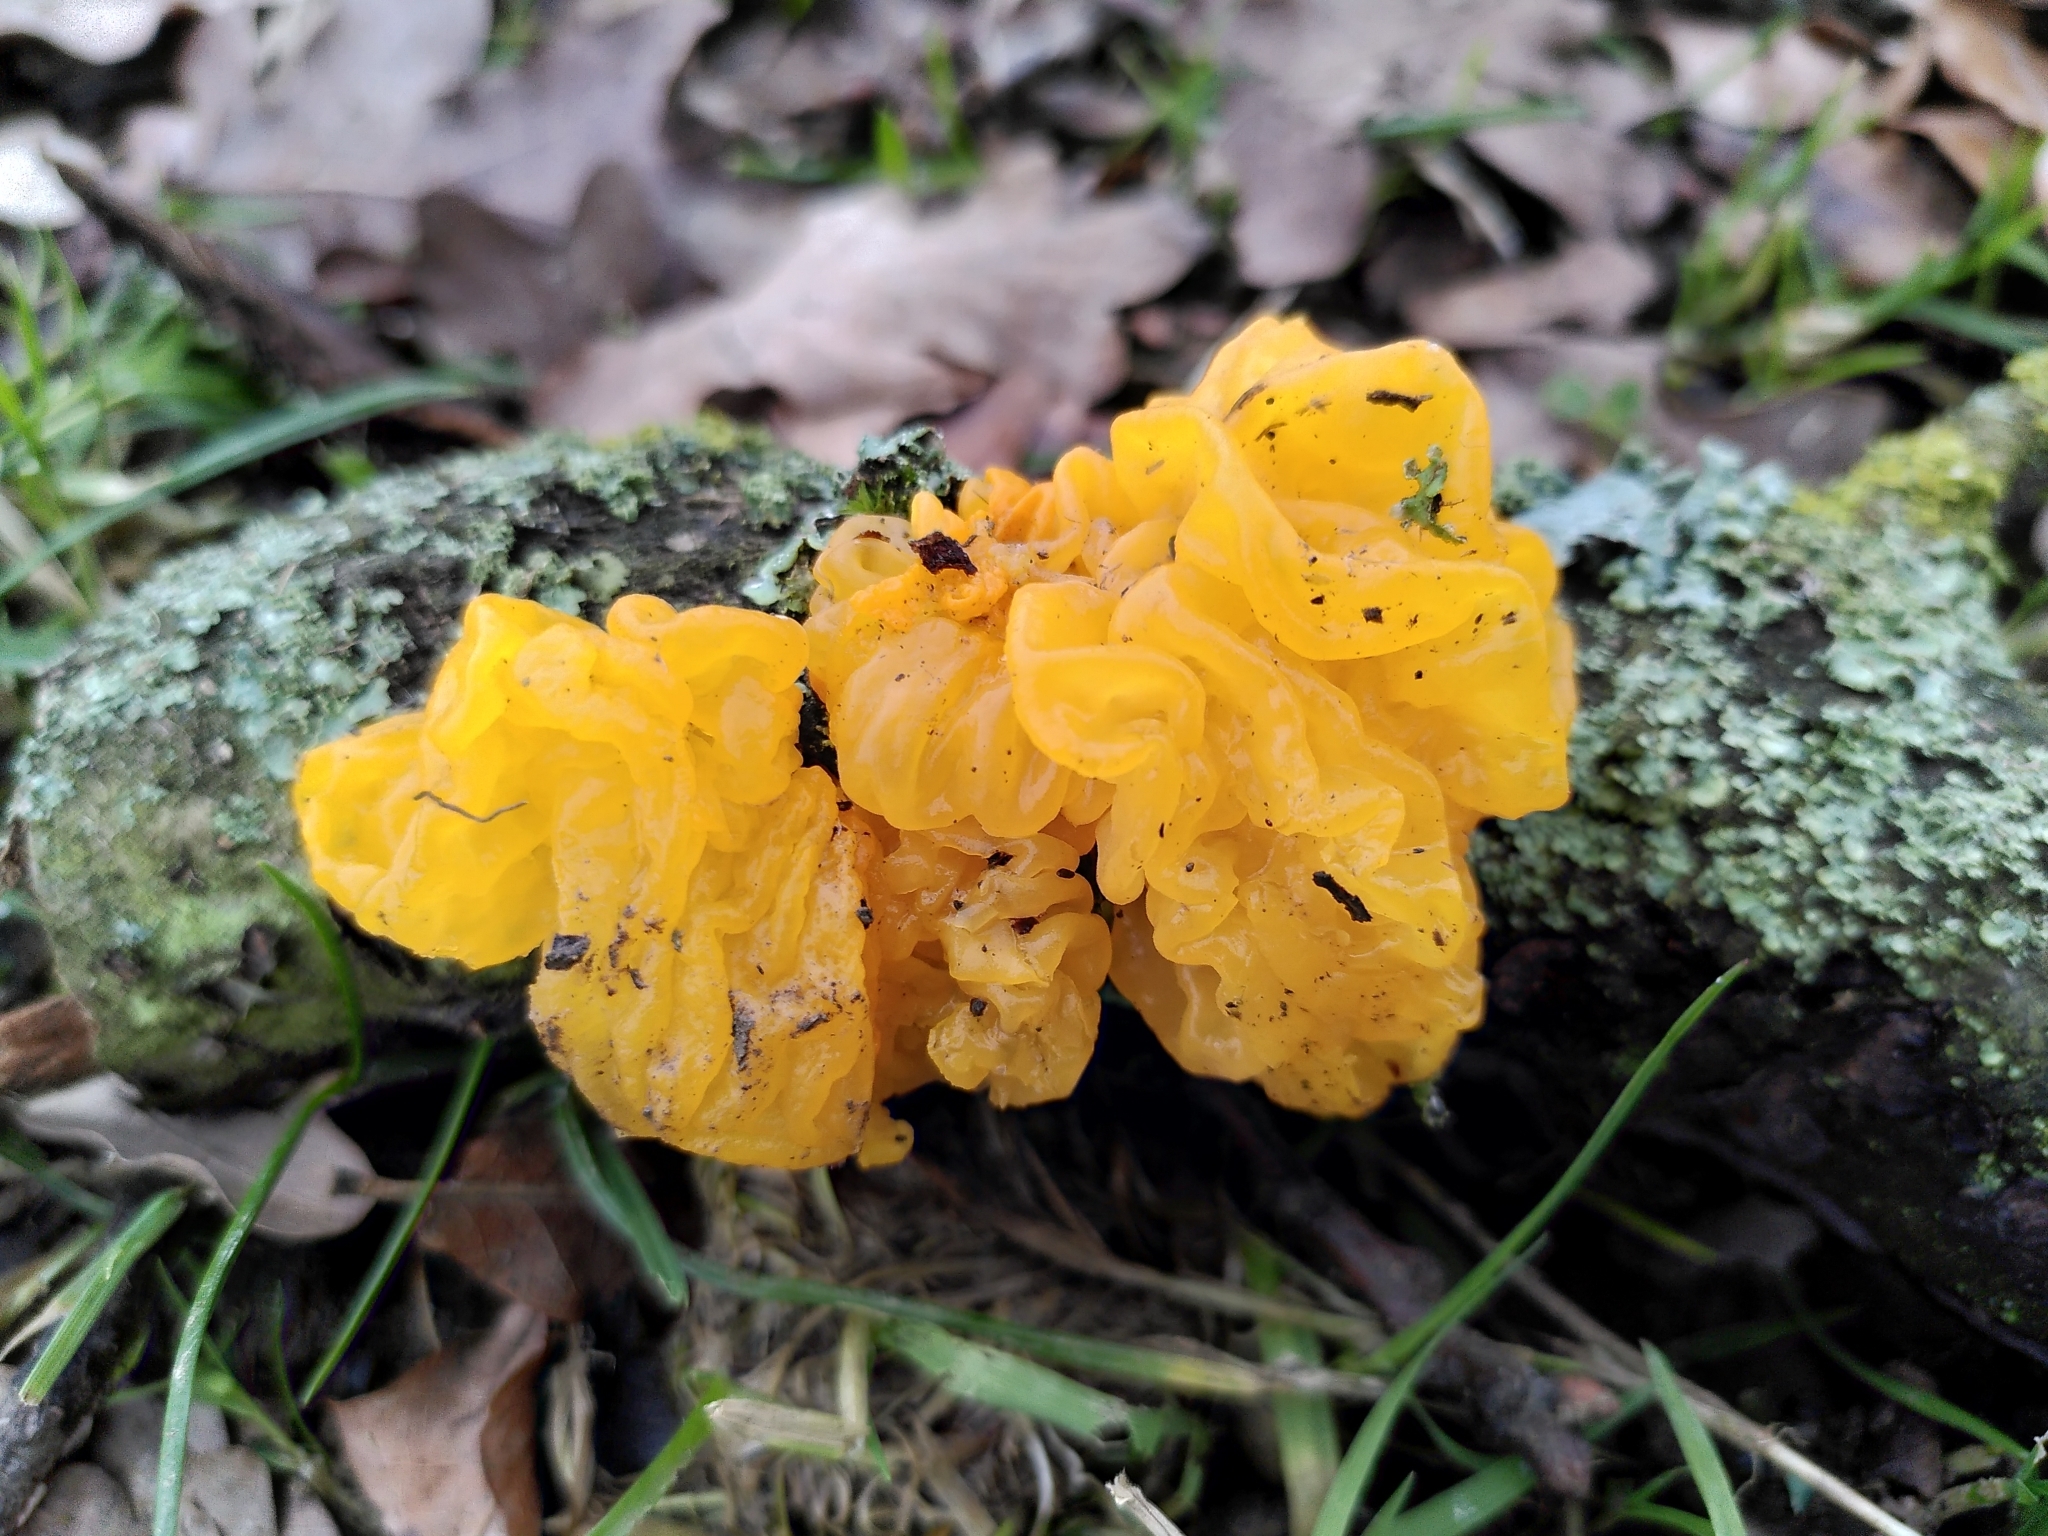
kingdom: Fungi
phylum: Basidiomycota
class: Tremellomycetes
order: Tremellales
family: Tremellaceae
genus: Tremella
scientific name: Tremella mesenterica
